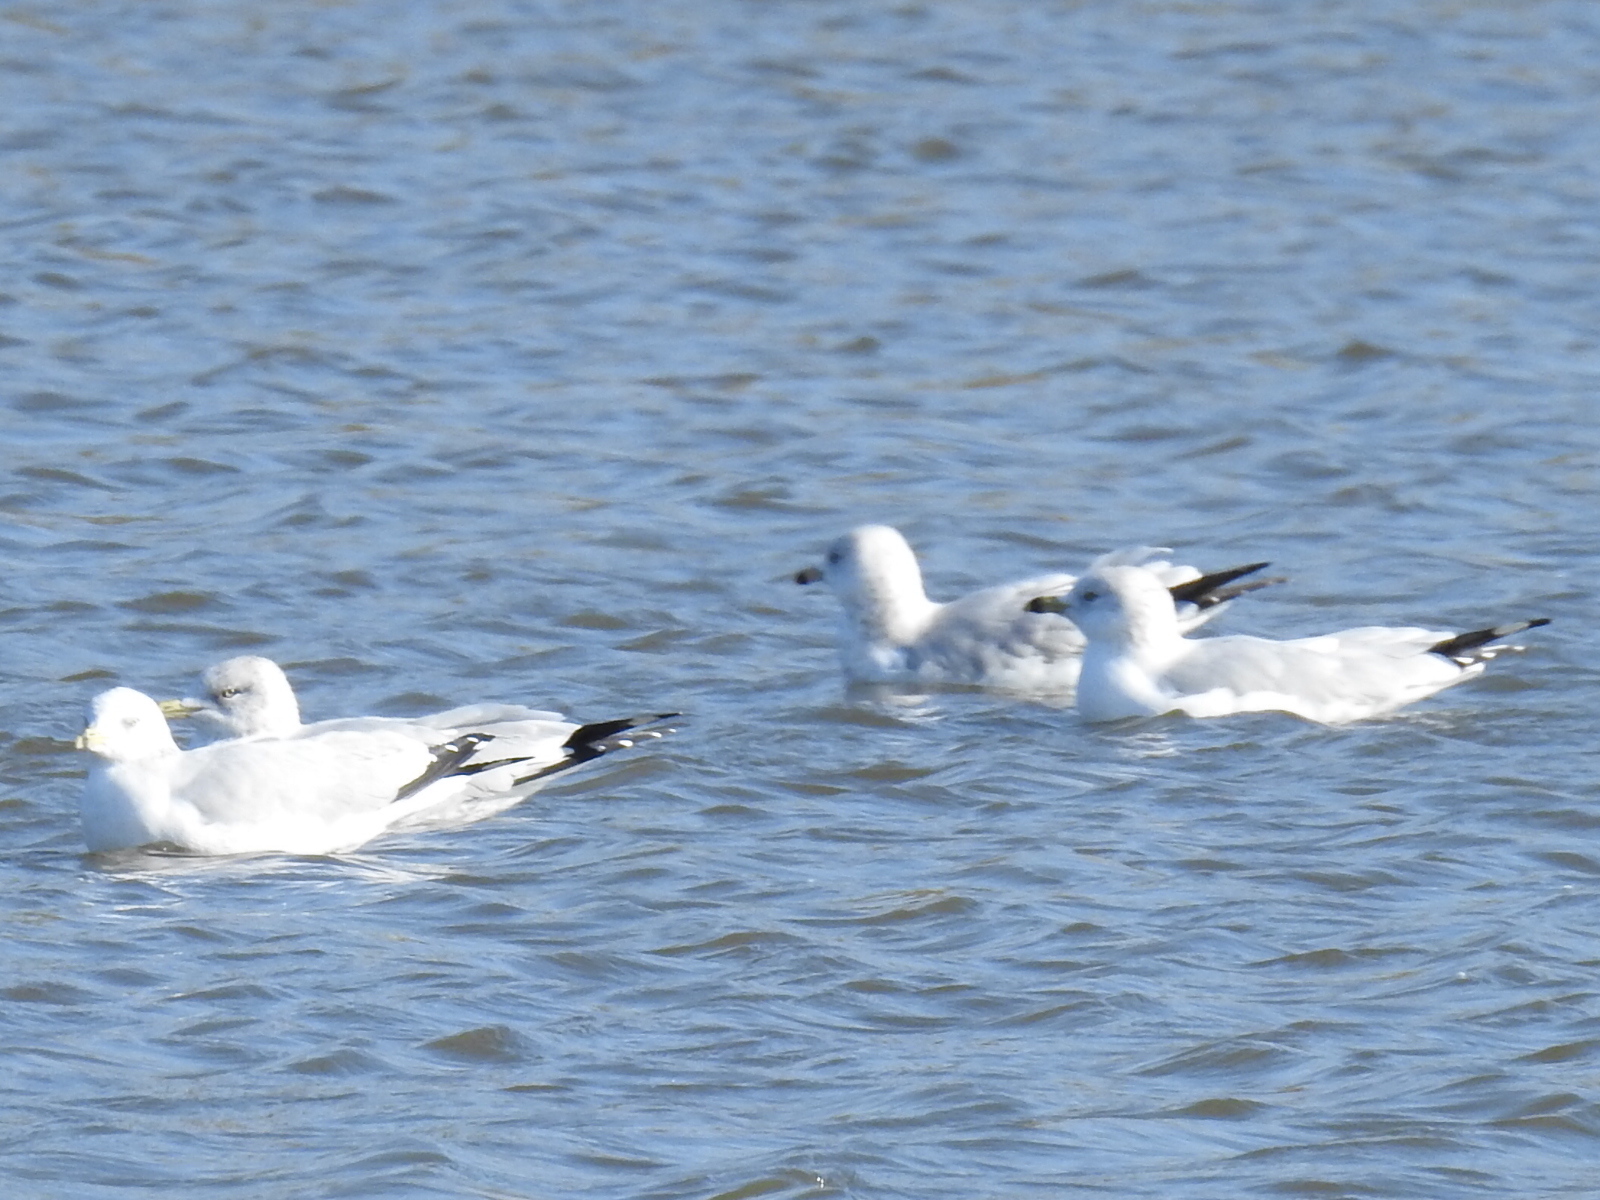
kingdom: Animalia
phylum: Chordata
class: Aves
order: Charadriiformes
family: Laridae
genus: Larus
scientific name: Larus delawarensis
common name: Ring-billed gull
